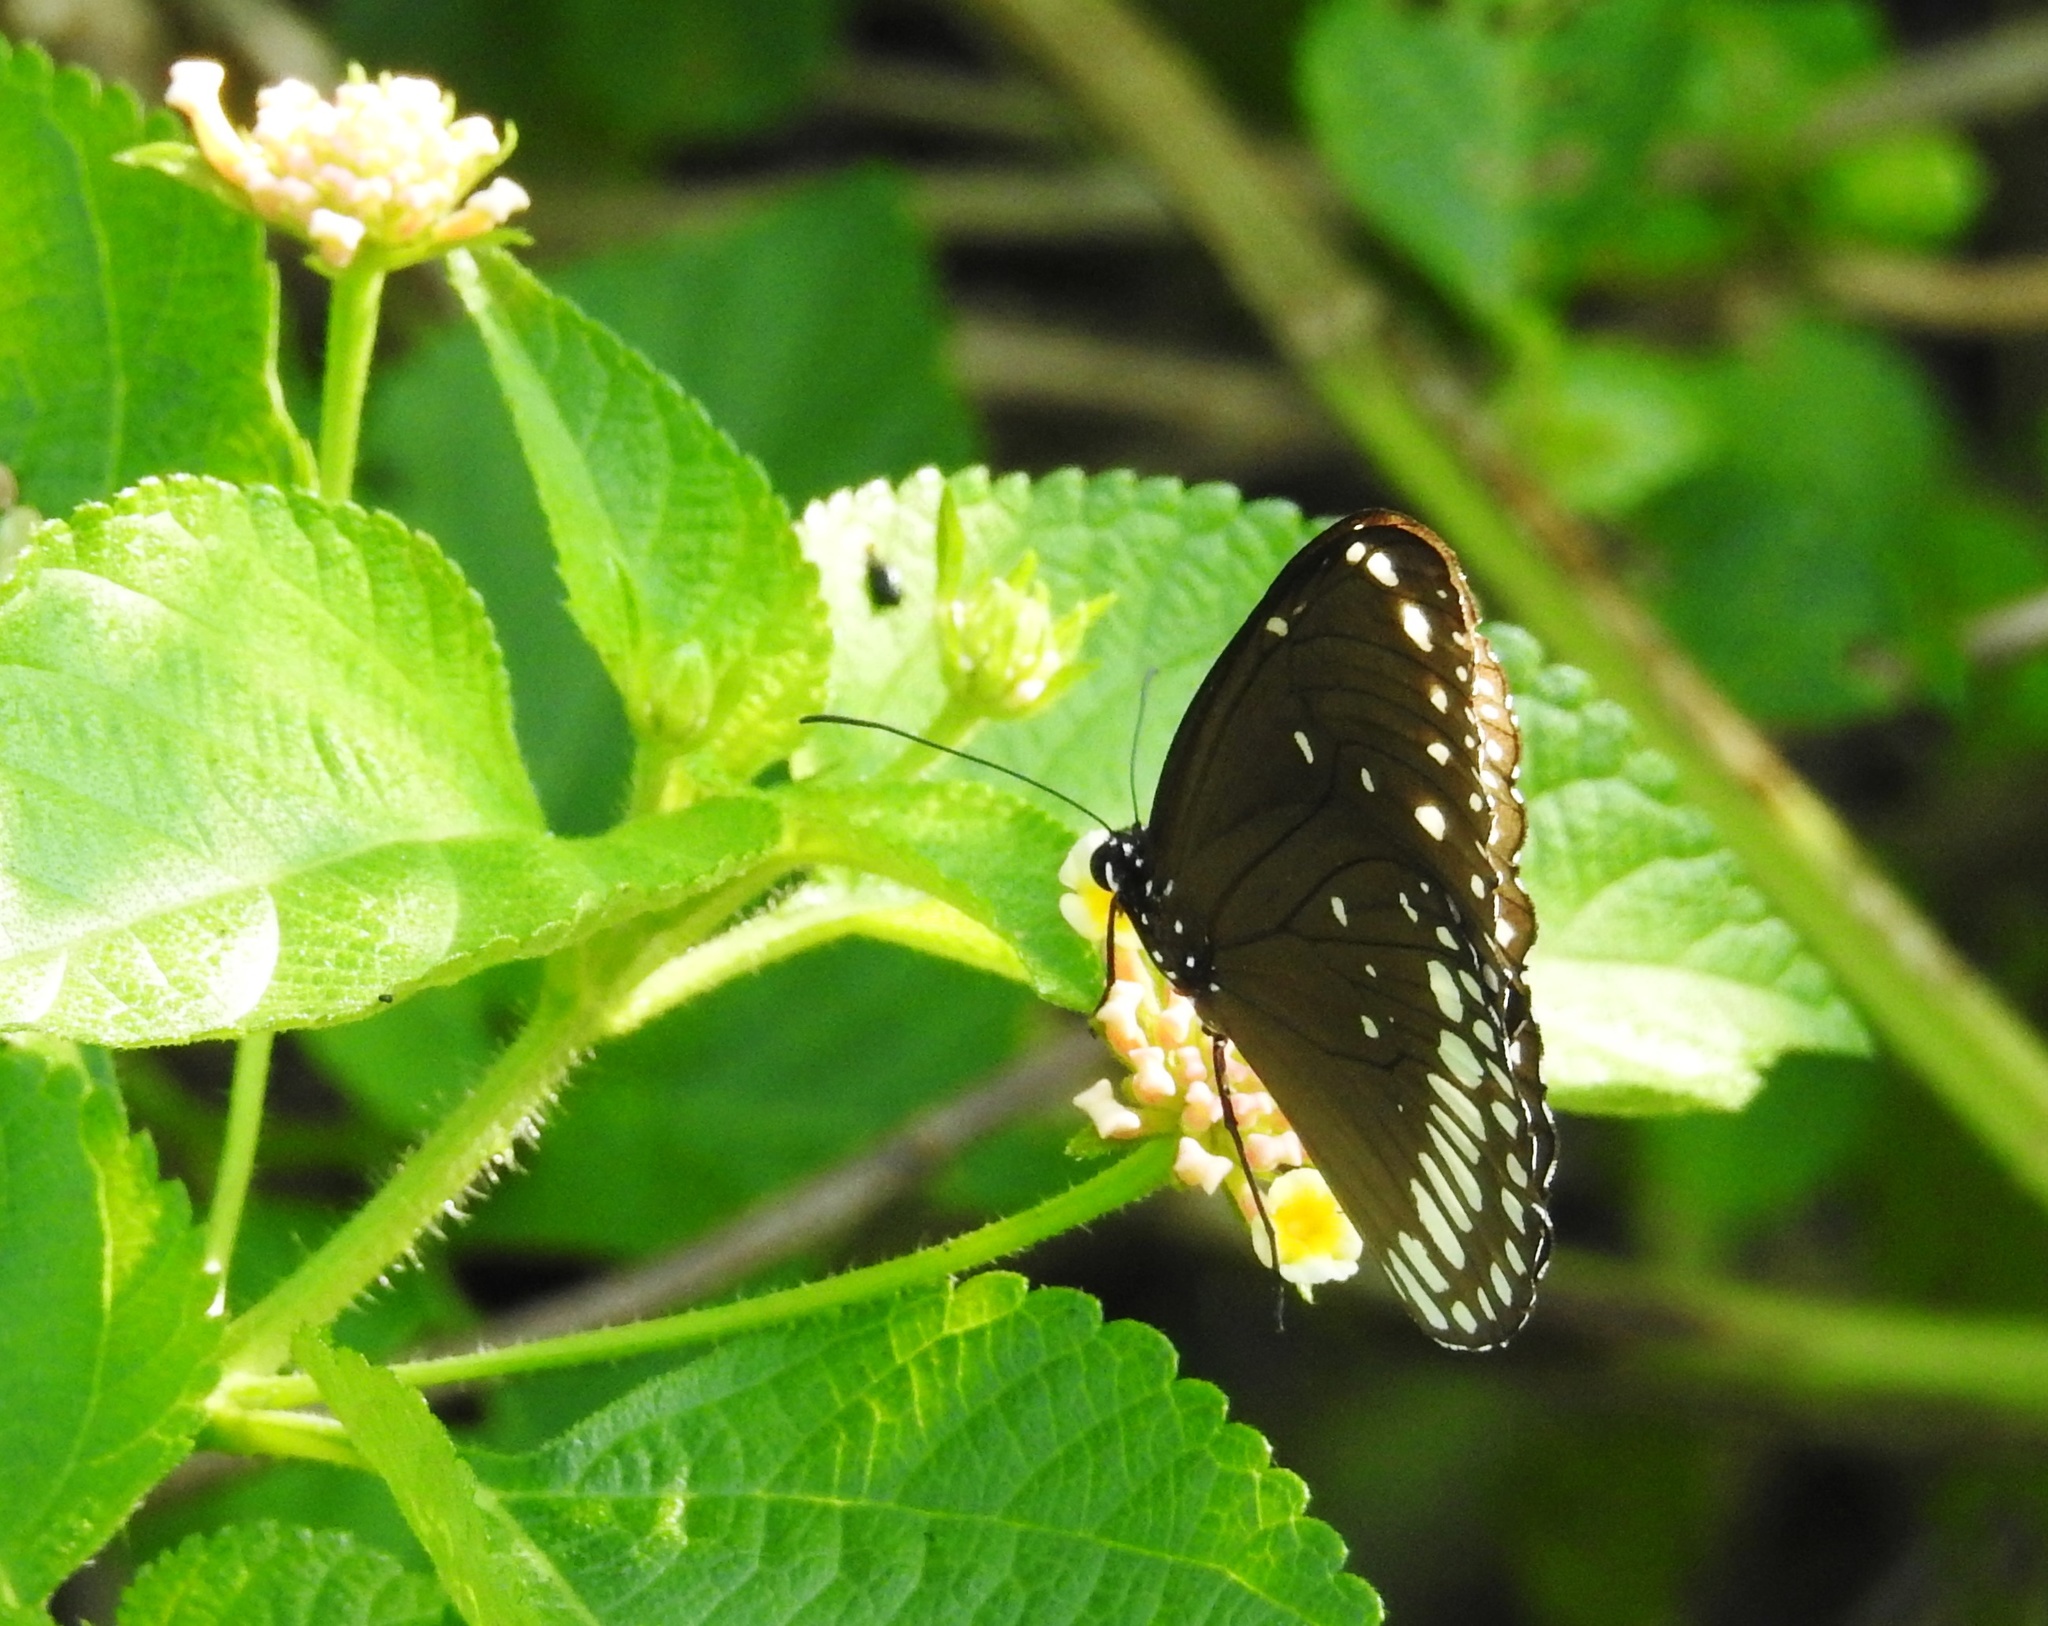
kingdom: Animalia
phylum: Arthropoda
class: Insecta
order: Lepidoptera
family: Nymphalidae
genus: Euploea
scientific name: Euploea core
